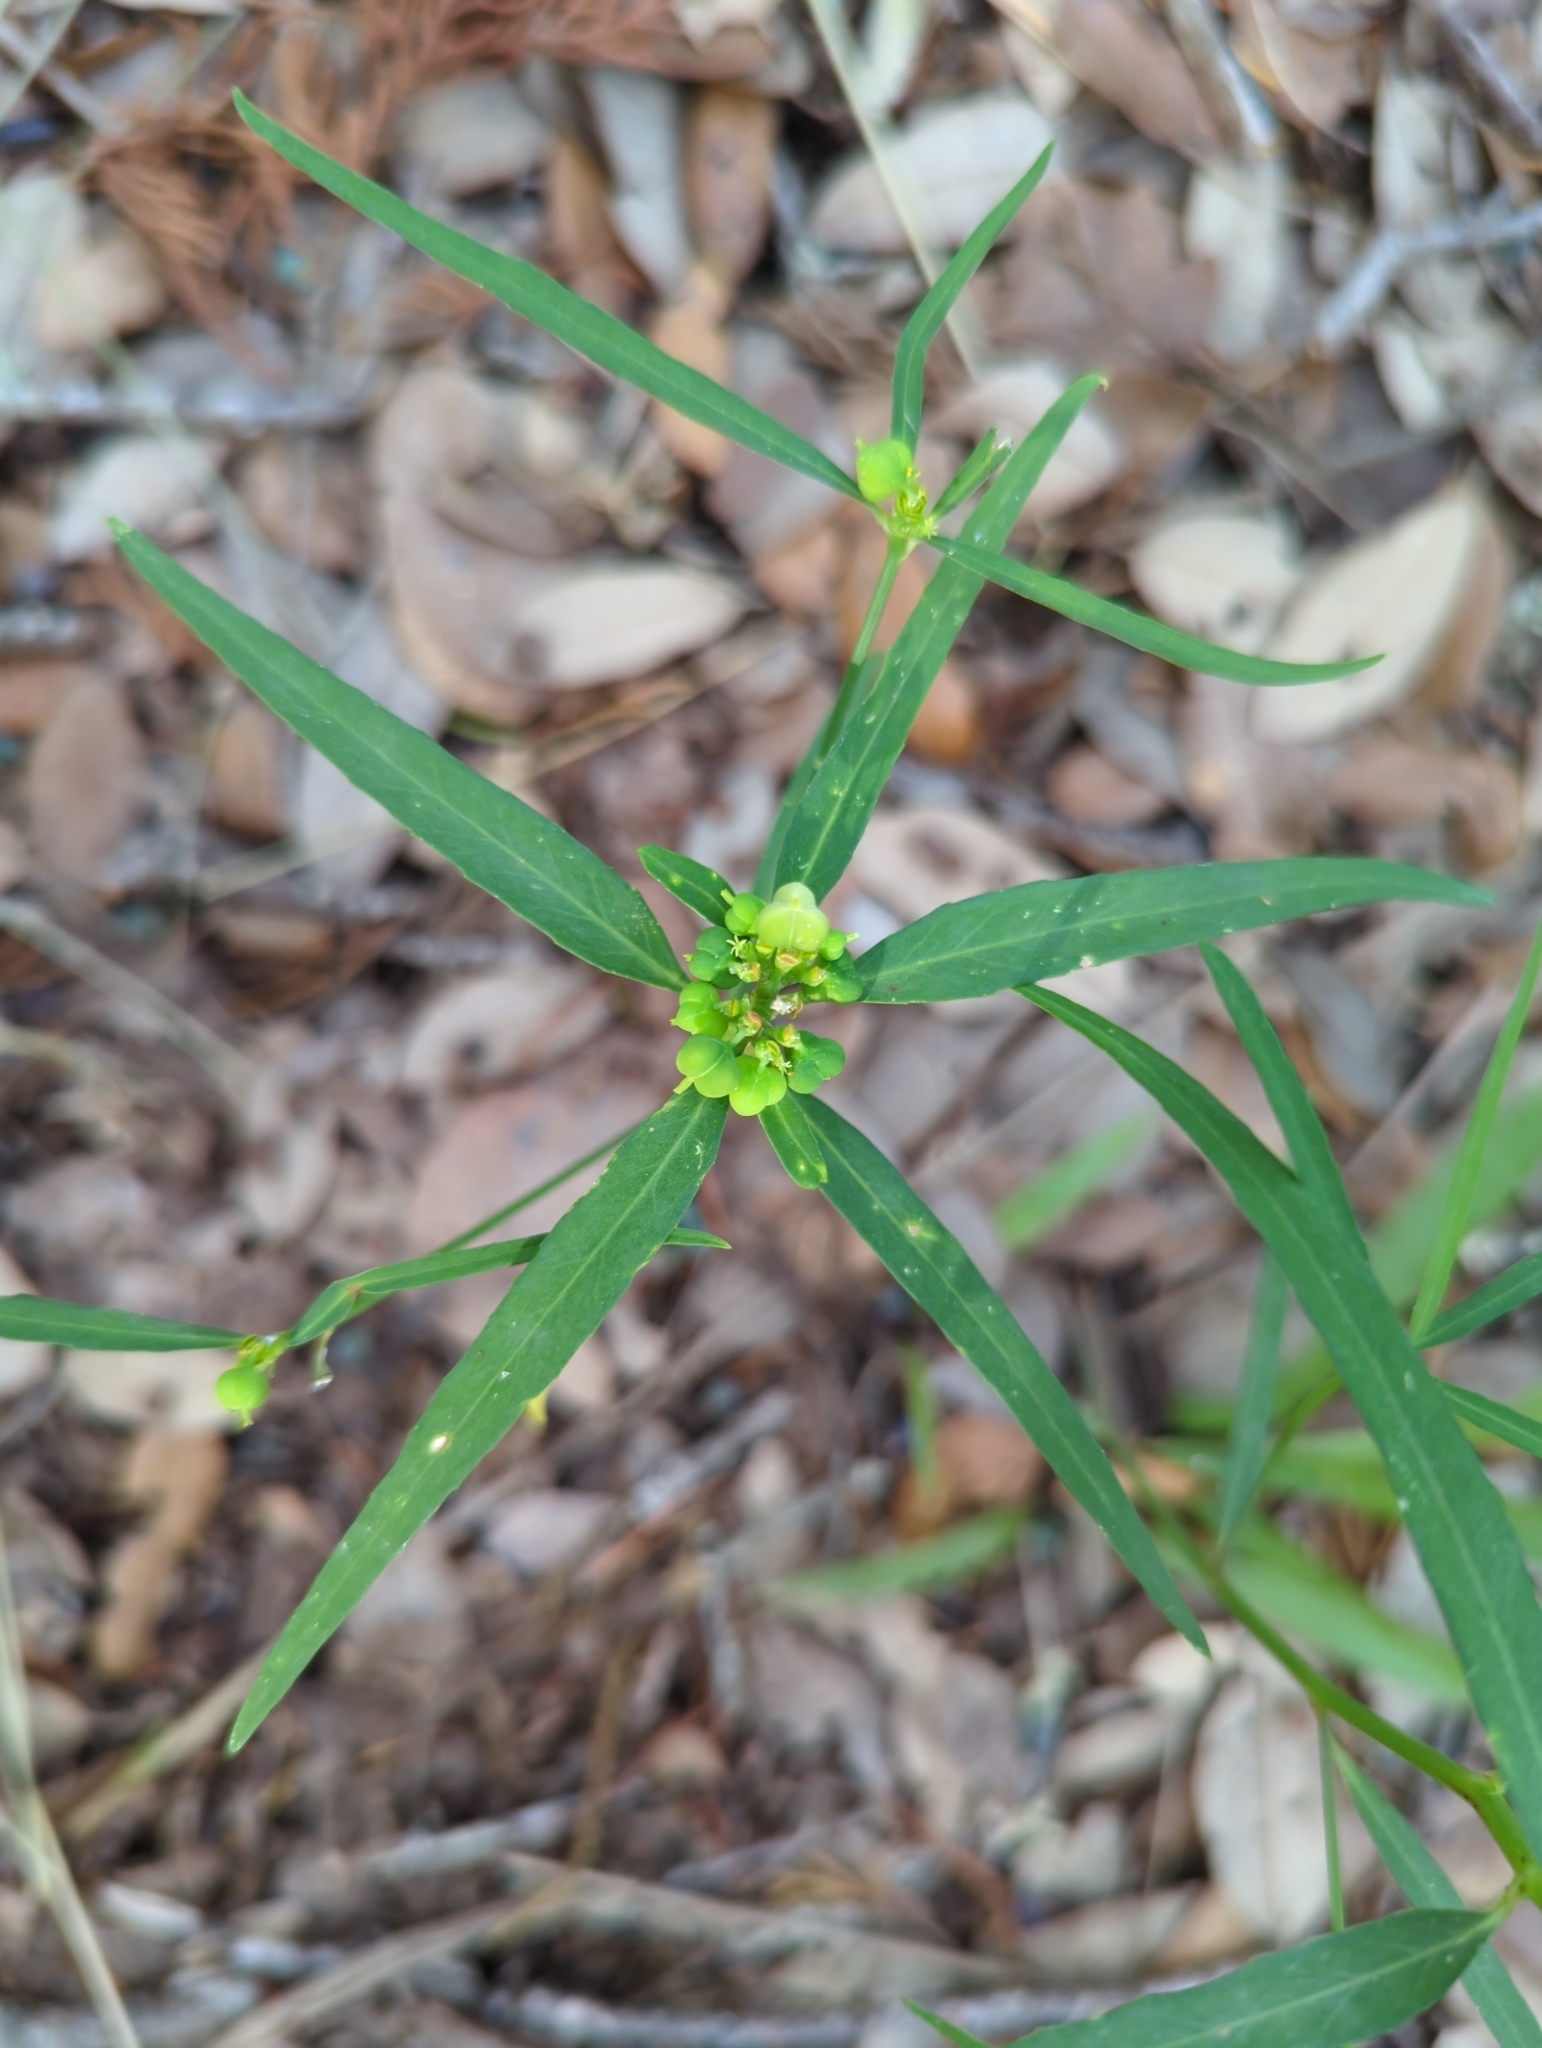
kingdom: Plantae
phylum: Tracheophyta
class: Magnoliopsida
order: Malpighiales
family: Euphorbiaceae
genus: Euphorbia
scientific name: Euphorbia heterophylla
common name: Mexican fireplant
